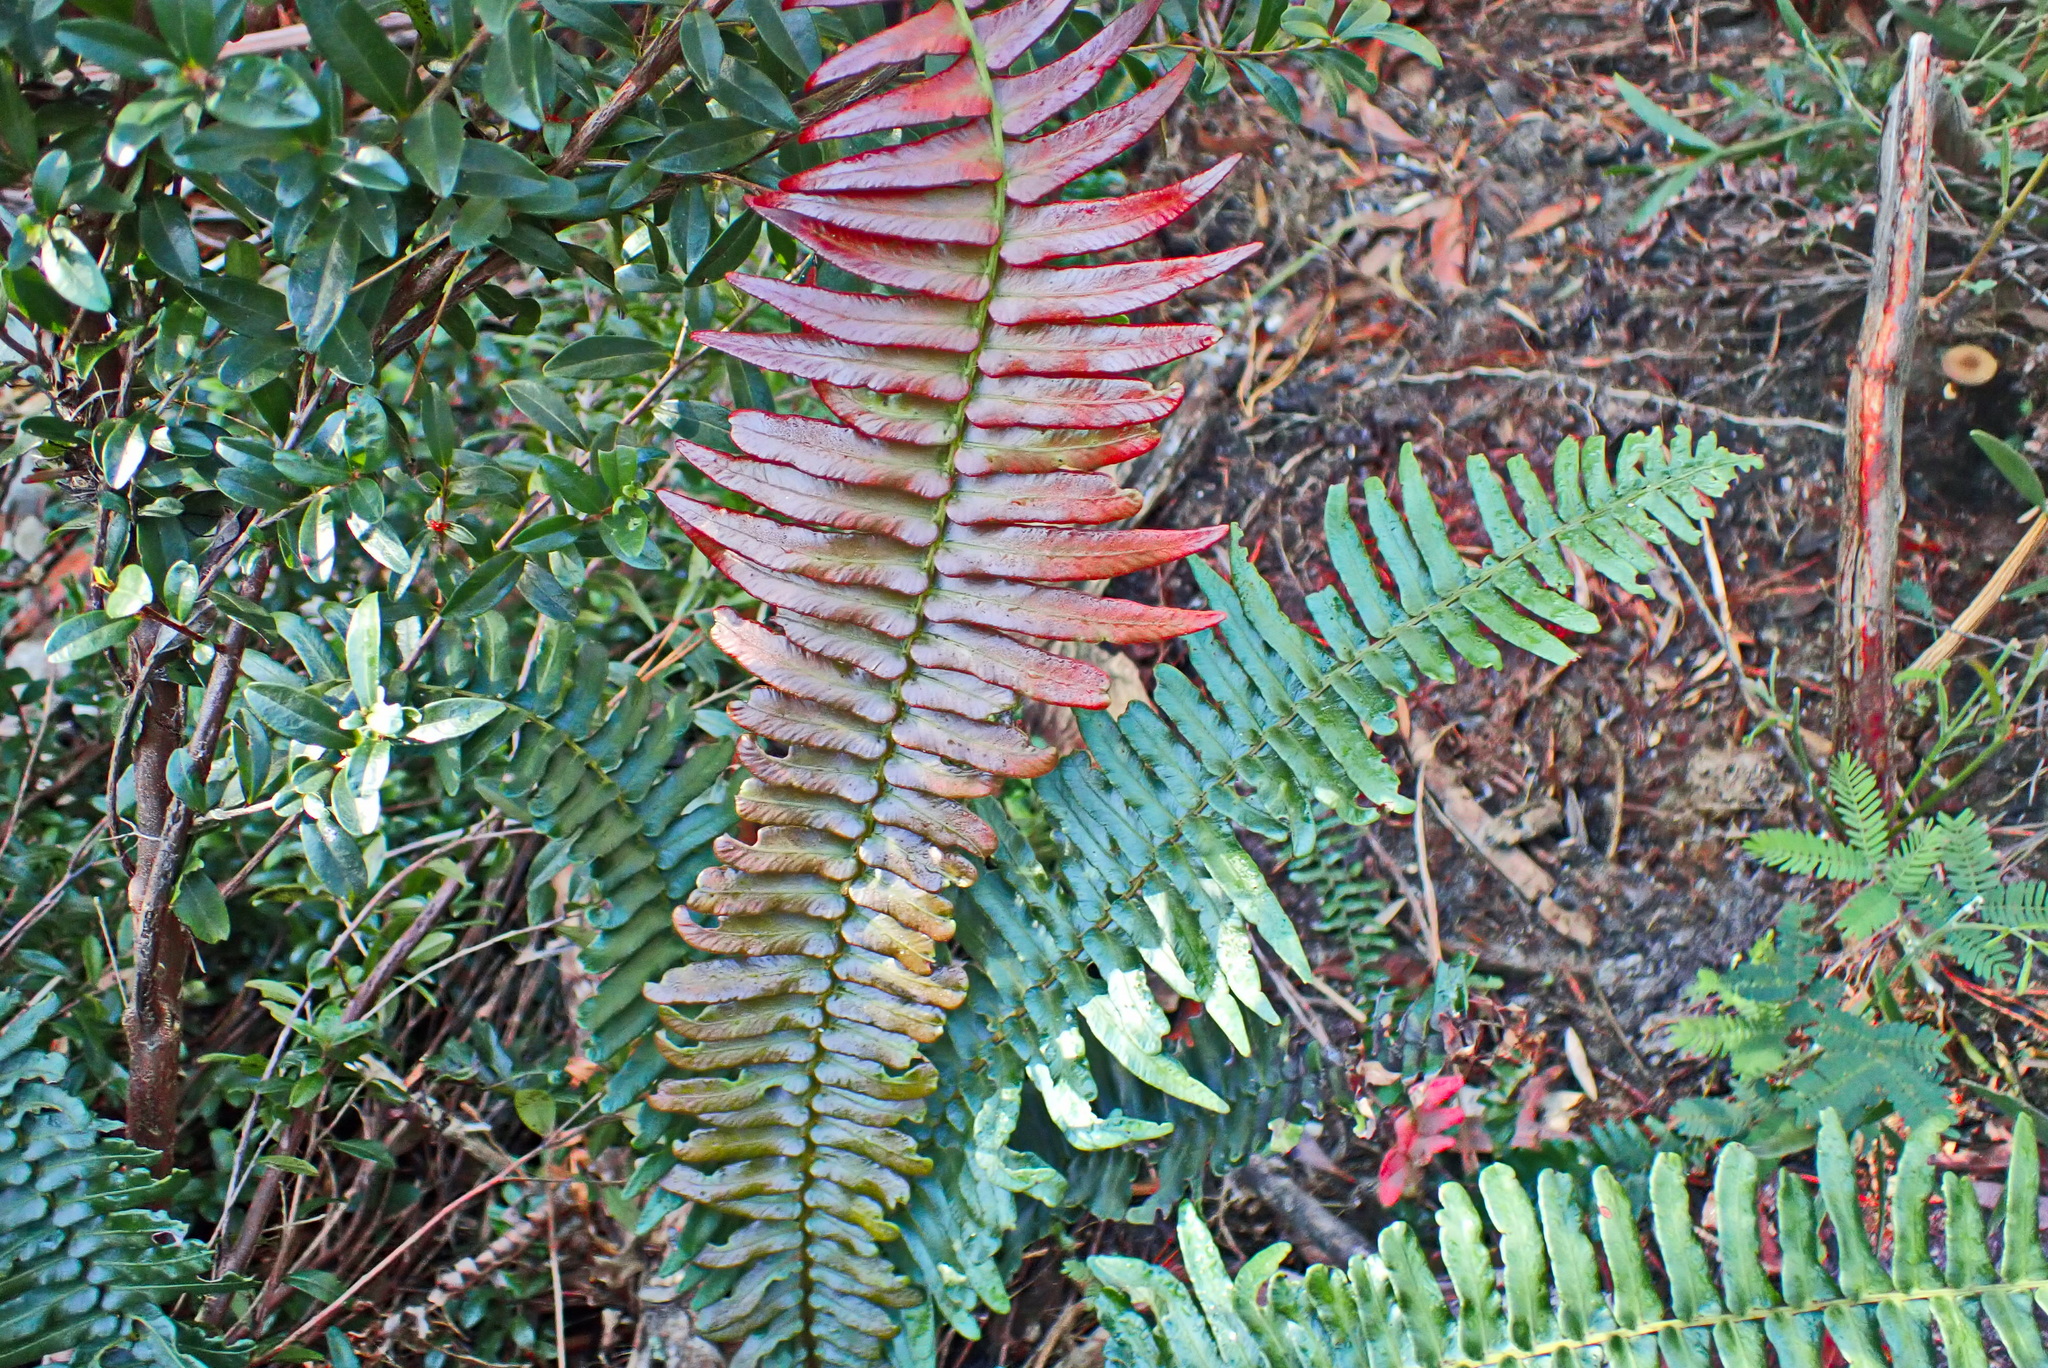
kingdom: Plantae
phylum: Tracheophyta
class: Polypodiopsida
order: Polypodiales
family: Blechnaceae
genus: Blechnum
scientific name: Blechnum punctulatum
